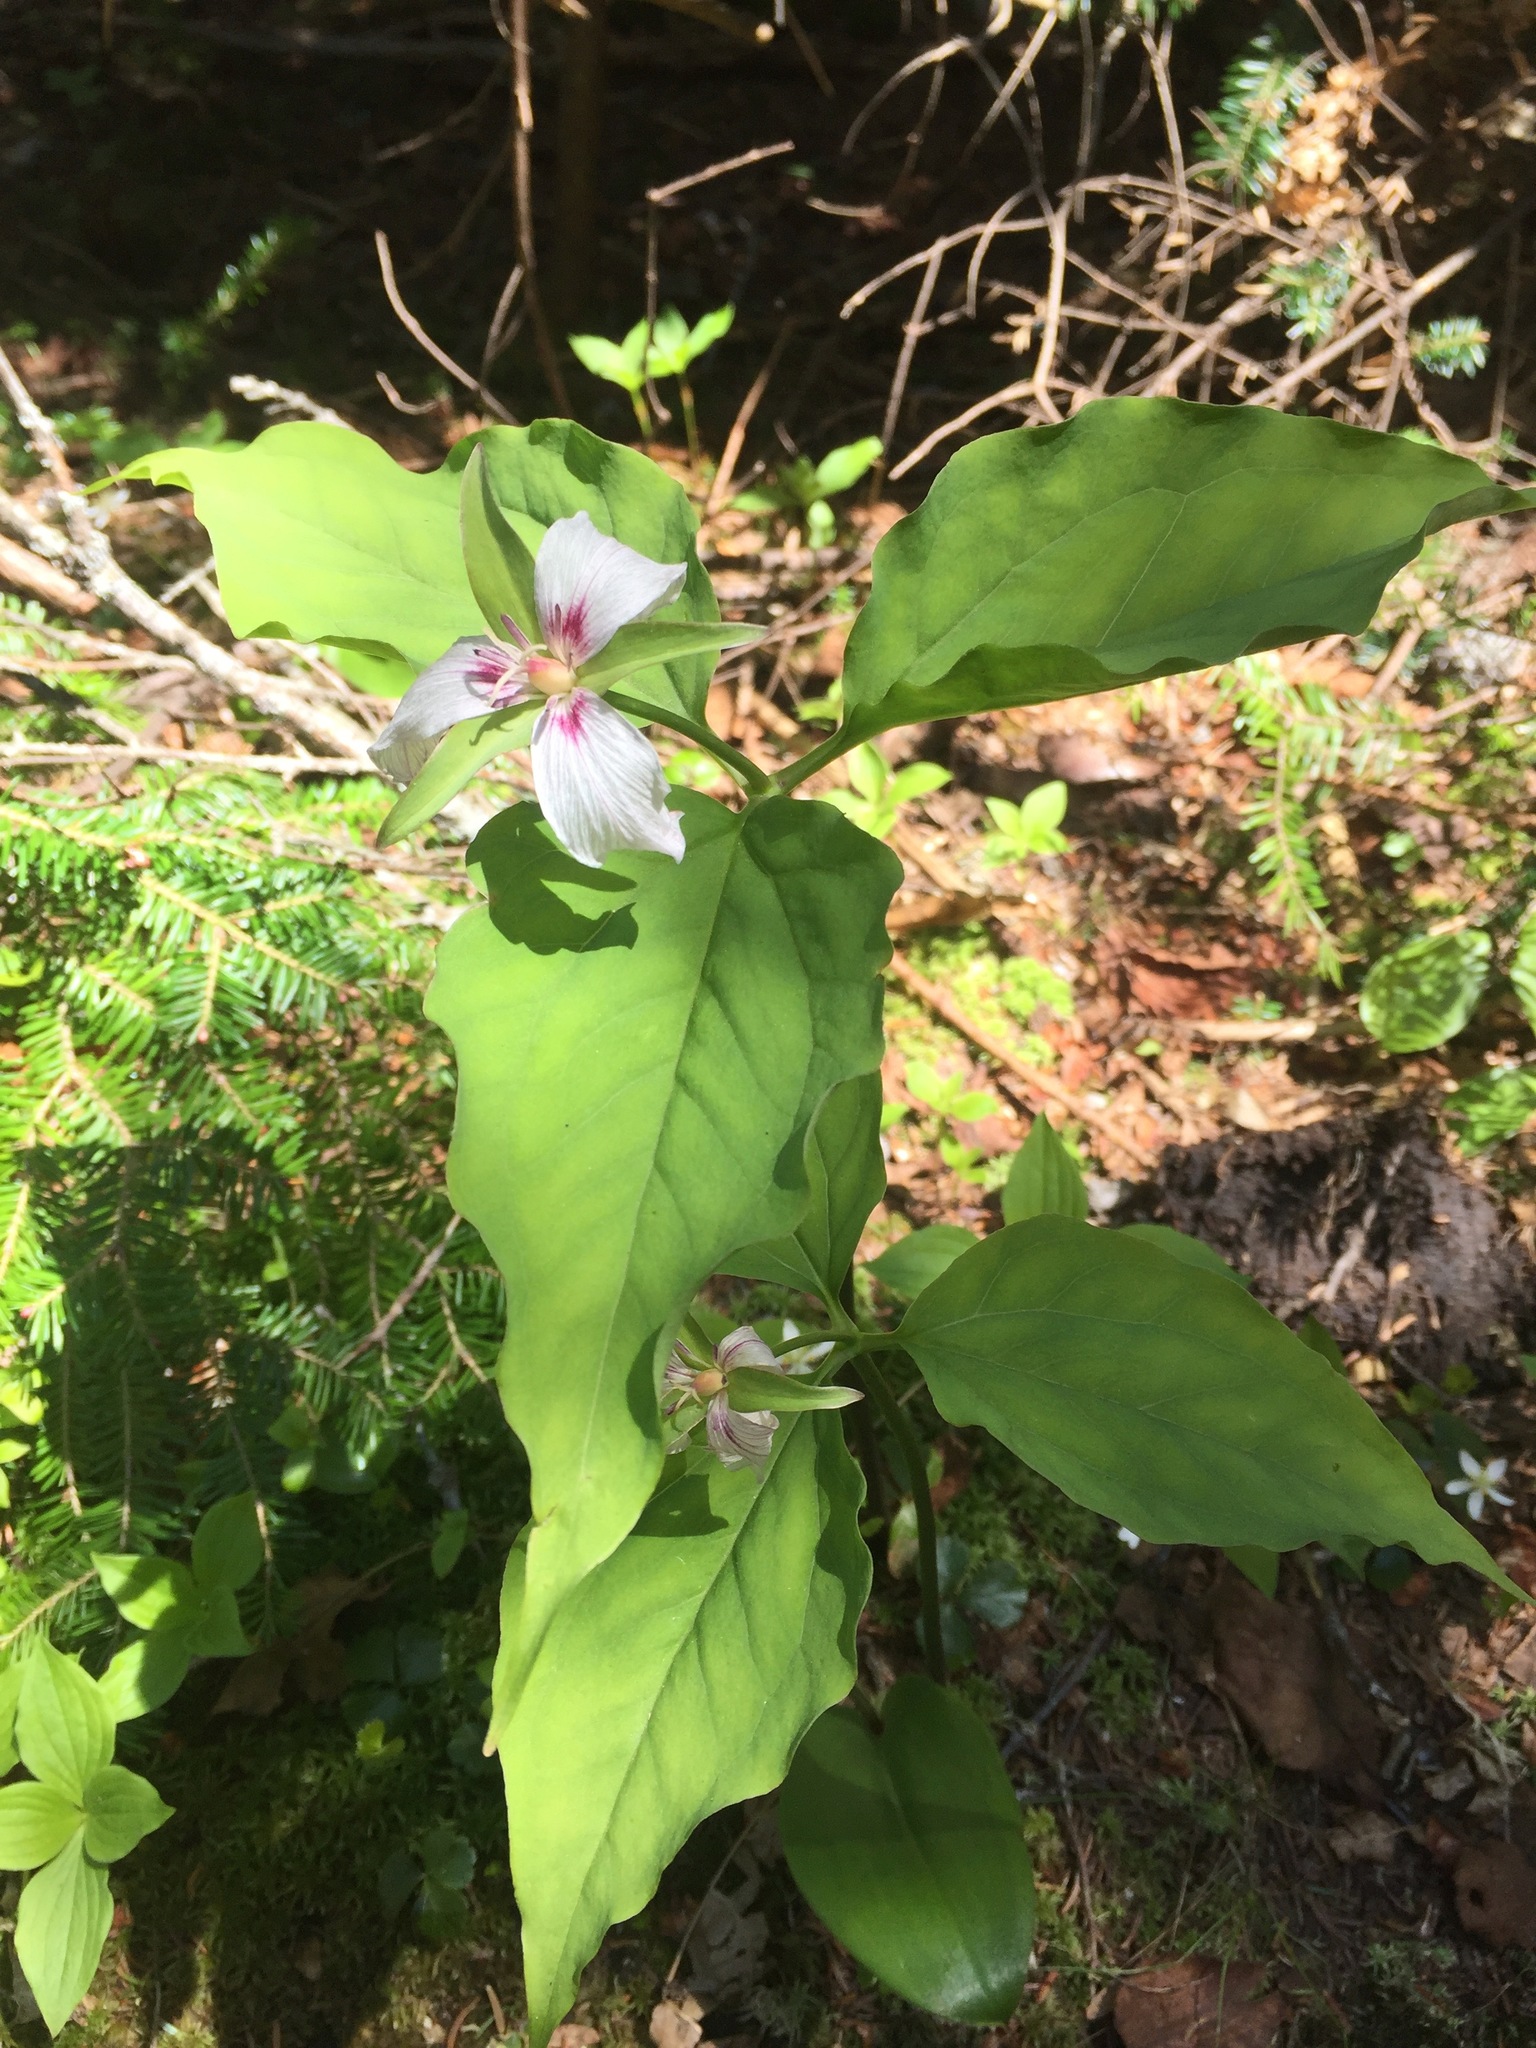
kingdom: Plantae
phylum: Tracheophyta
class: Liliopsida
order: Liliales
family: Melanthiaceae
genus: Trillium
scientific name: Trillium undulatum
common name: Paint trillium
